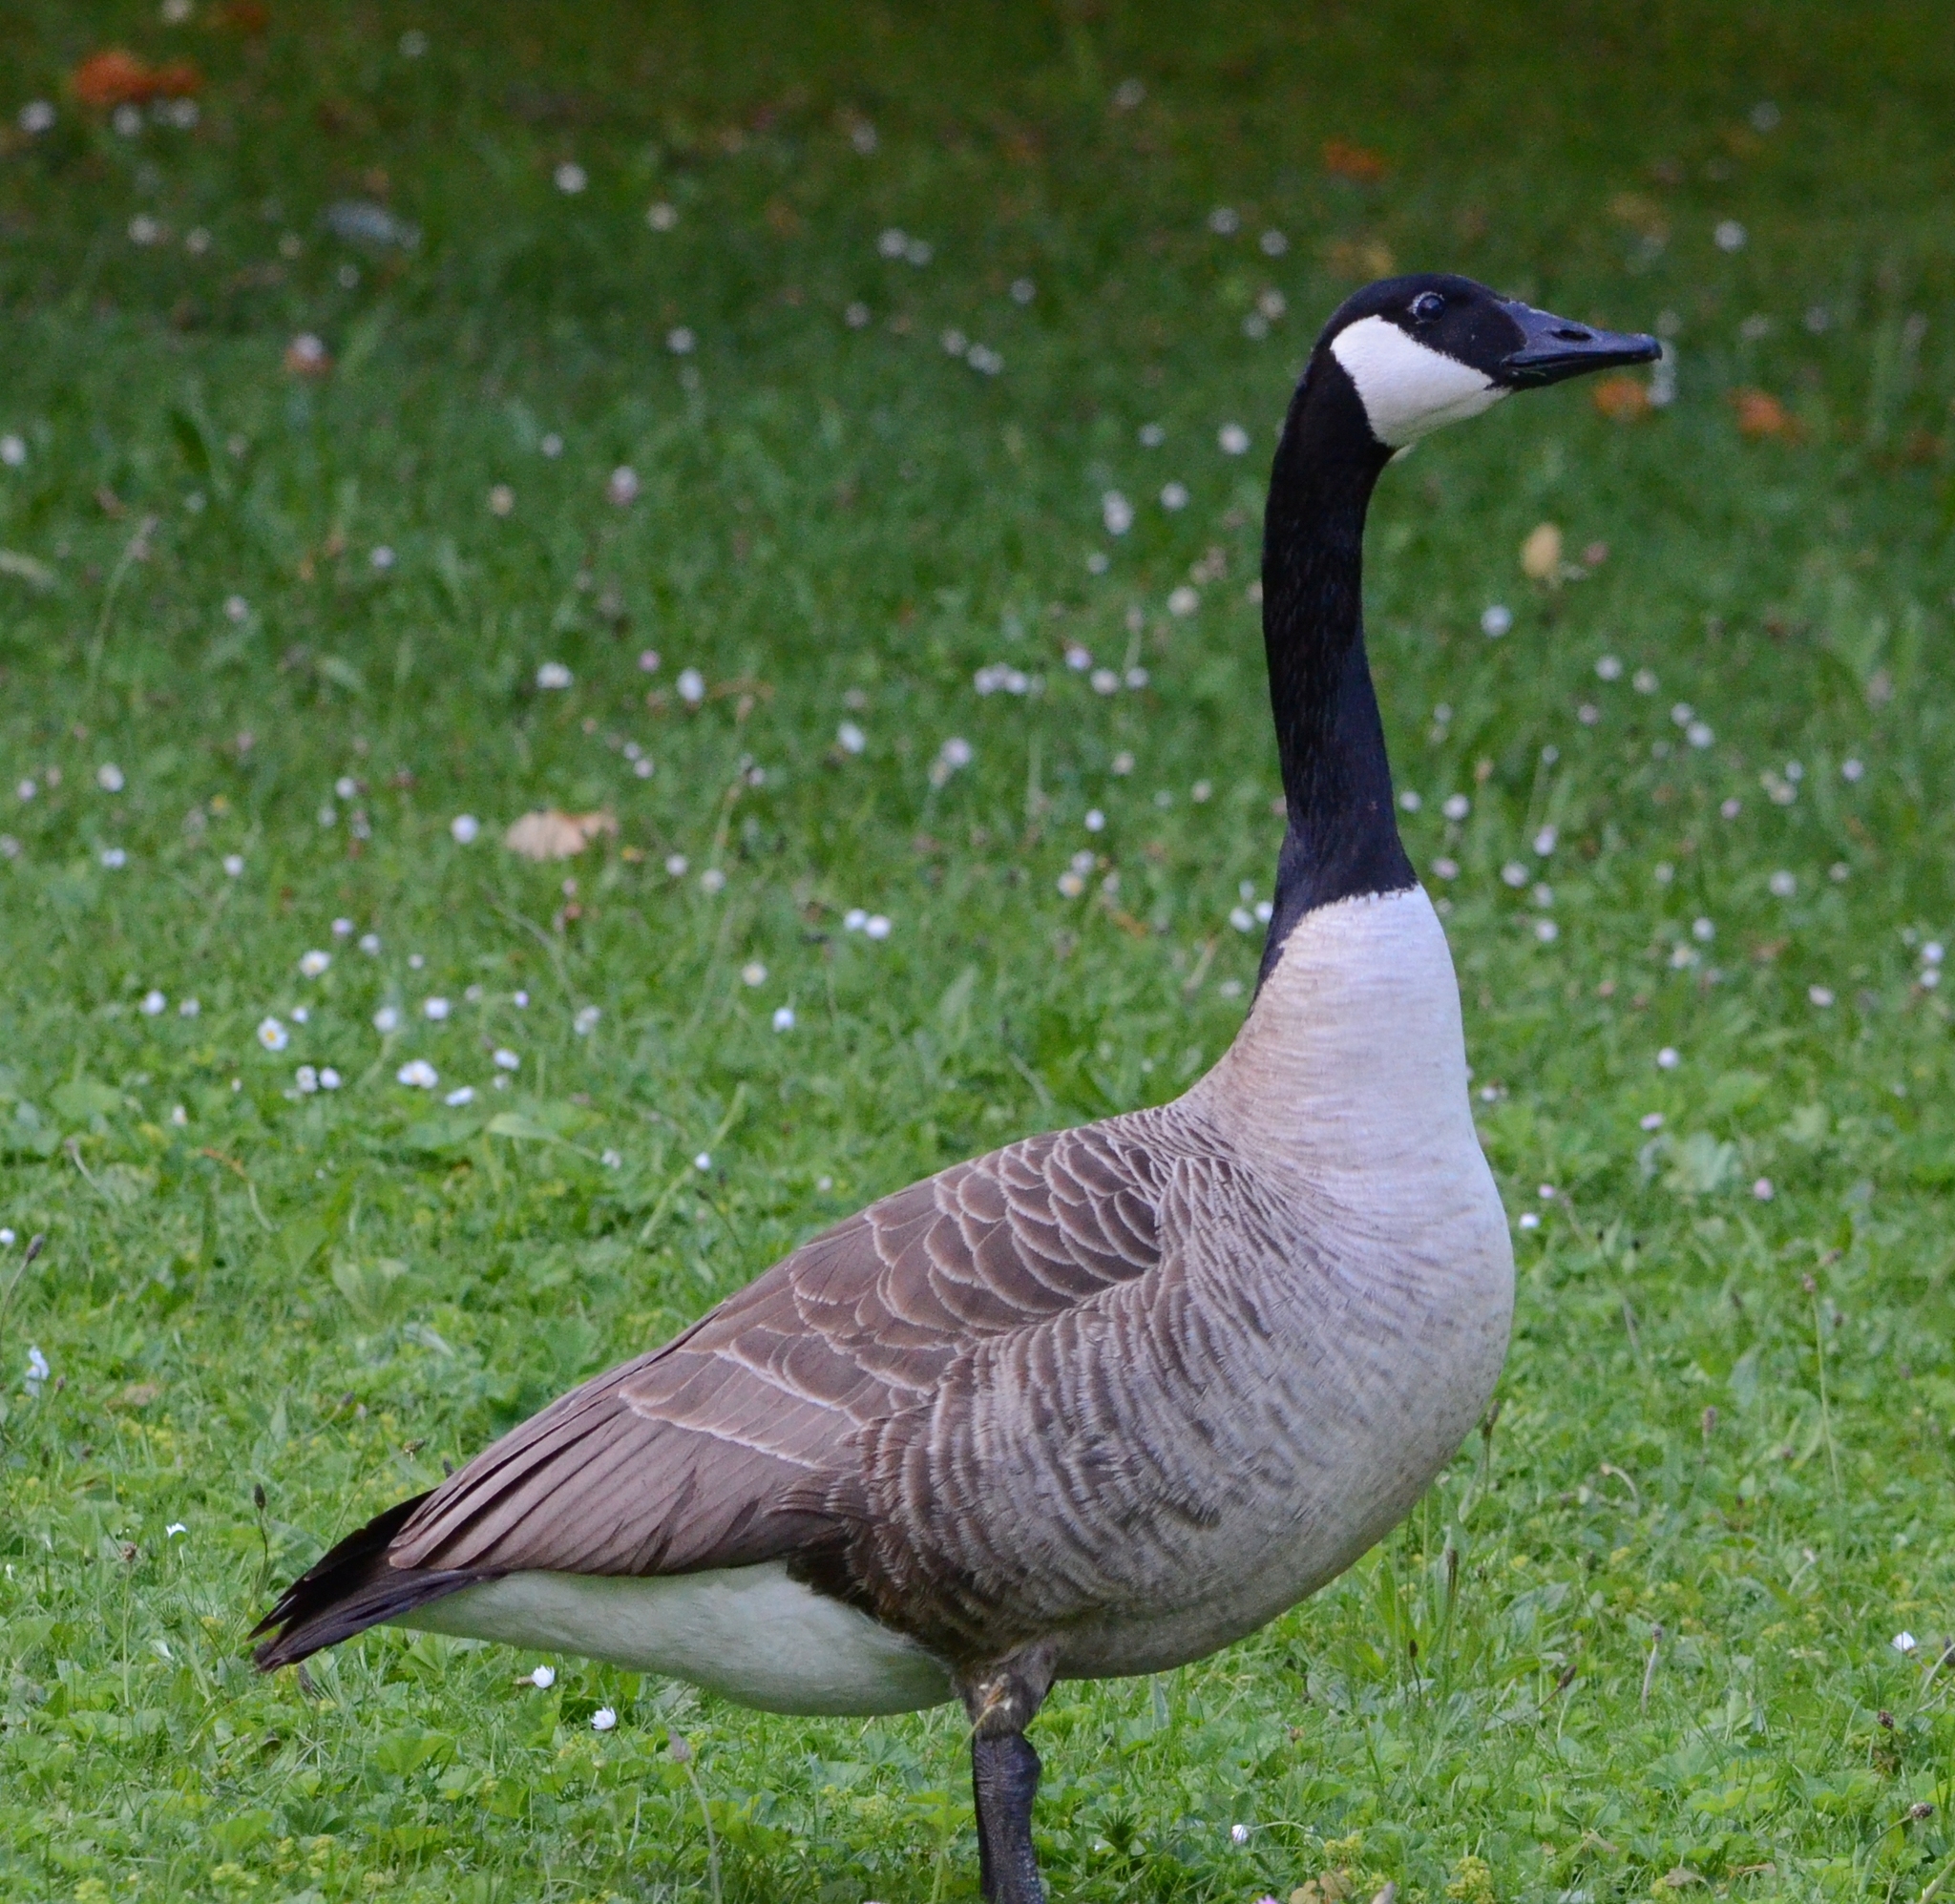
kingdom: Animalia
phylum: Chordata
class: Aves
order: Anseriformes
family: Anatidae
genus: Branta
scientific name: Branta canadensis
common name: Canada goose
